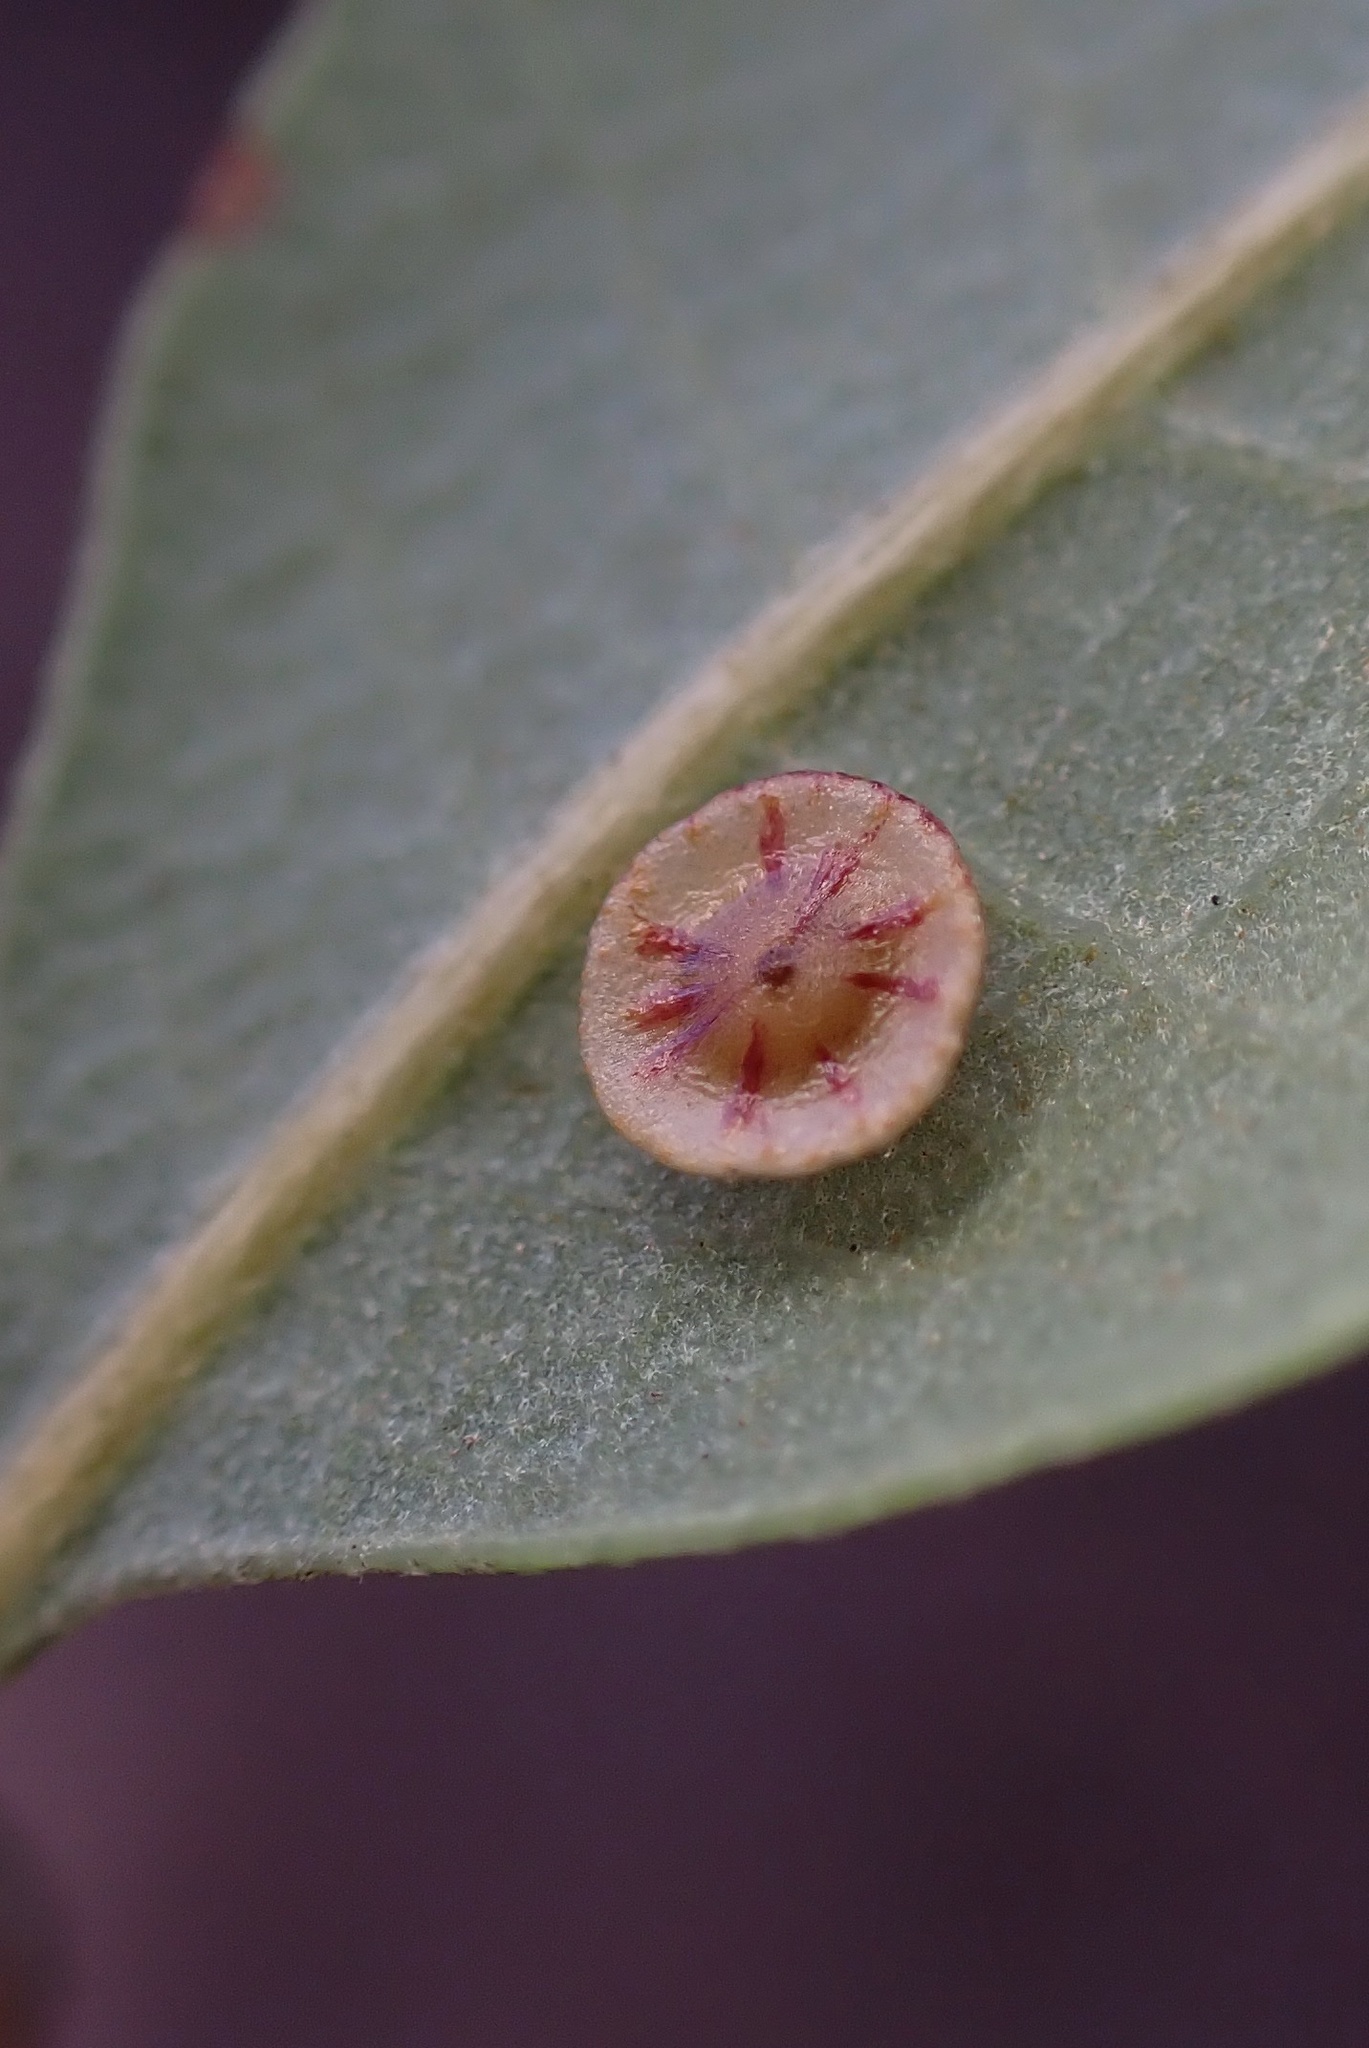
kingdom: Animalia
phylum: Arthropoda
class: Insecta
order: Hymenoptera
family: Cynipidae
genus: Andricus
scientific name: Andricus
